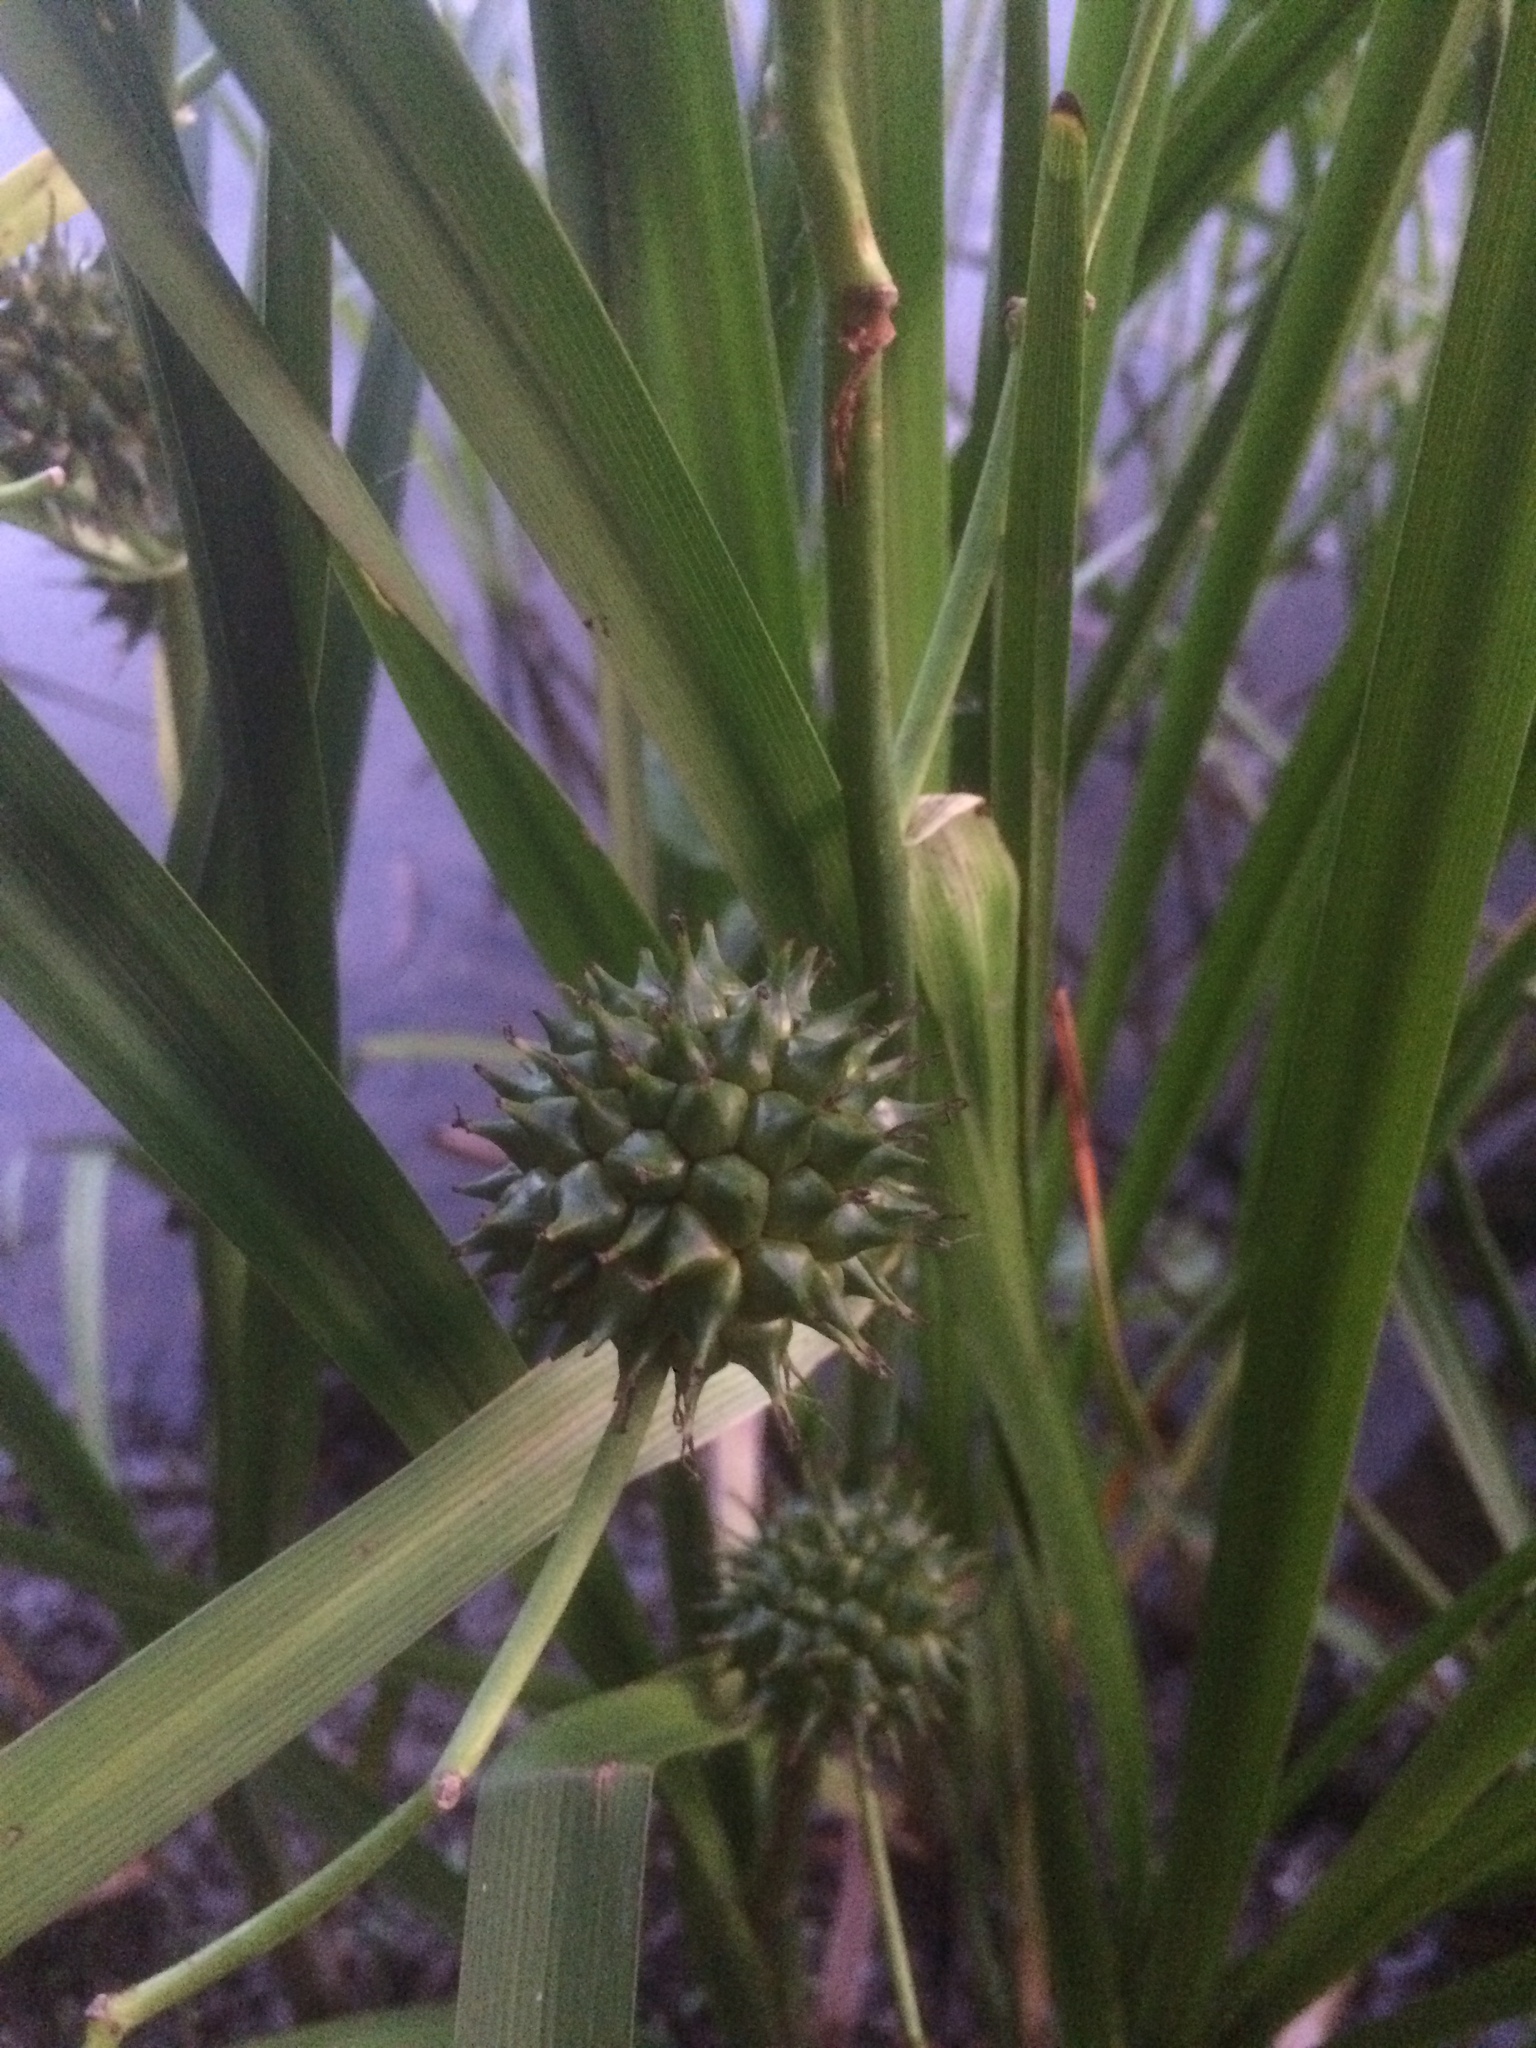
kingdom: Plantae
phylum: Tracheophyta
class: Liliopsida
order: Poales
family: Typhaceae
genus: Sparganium
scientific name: Sparganium eurycarpum
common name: Broad-fruited burreed
